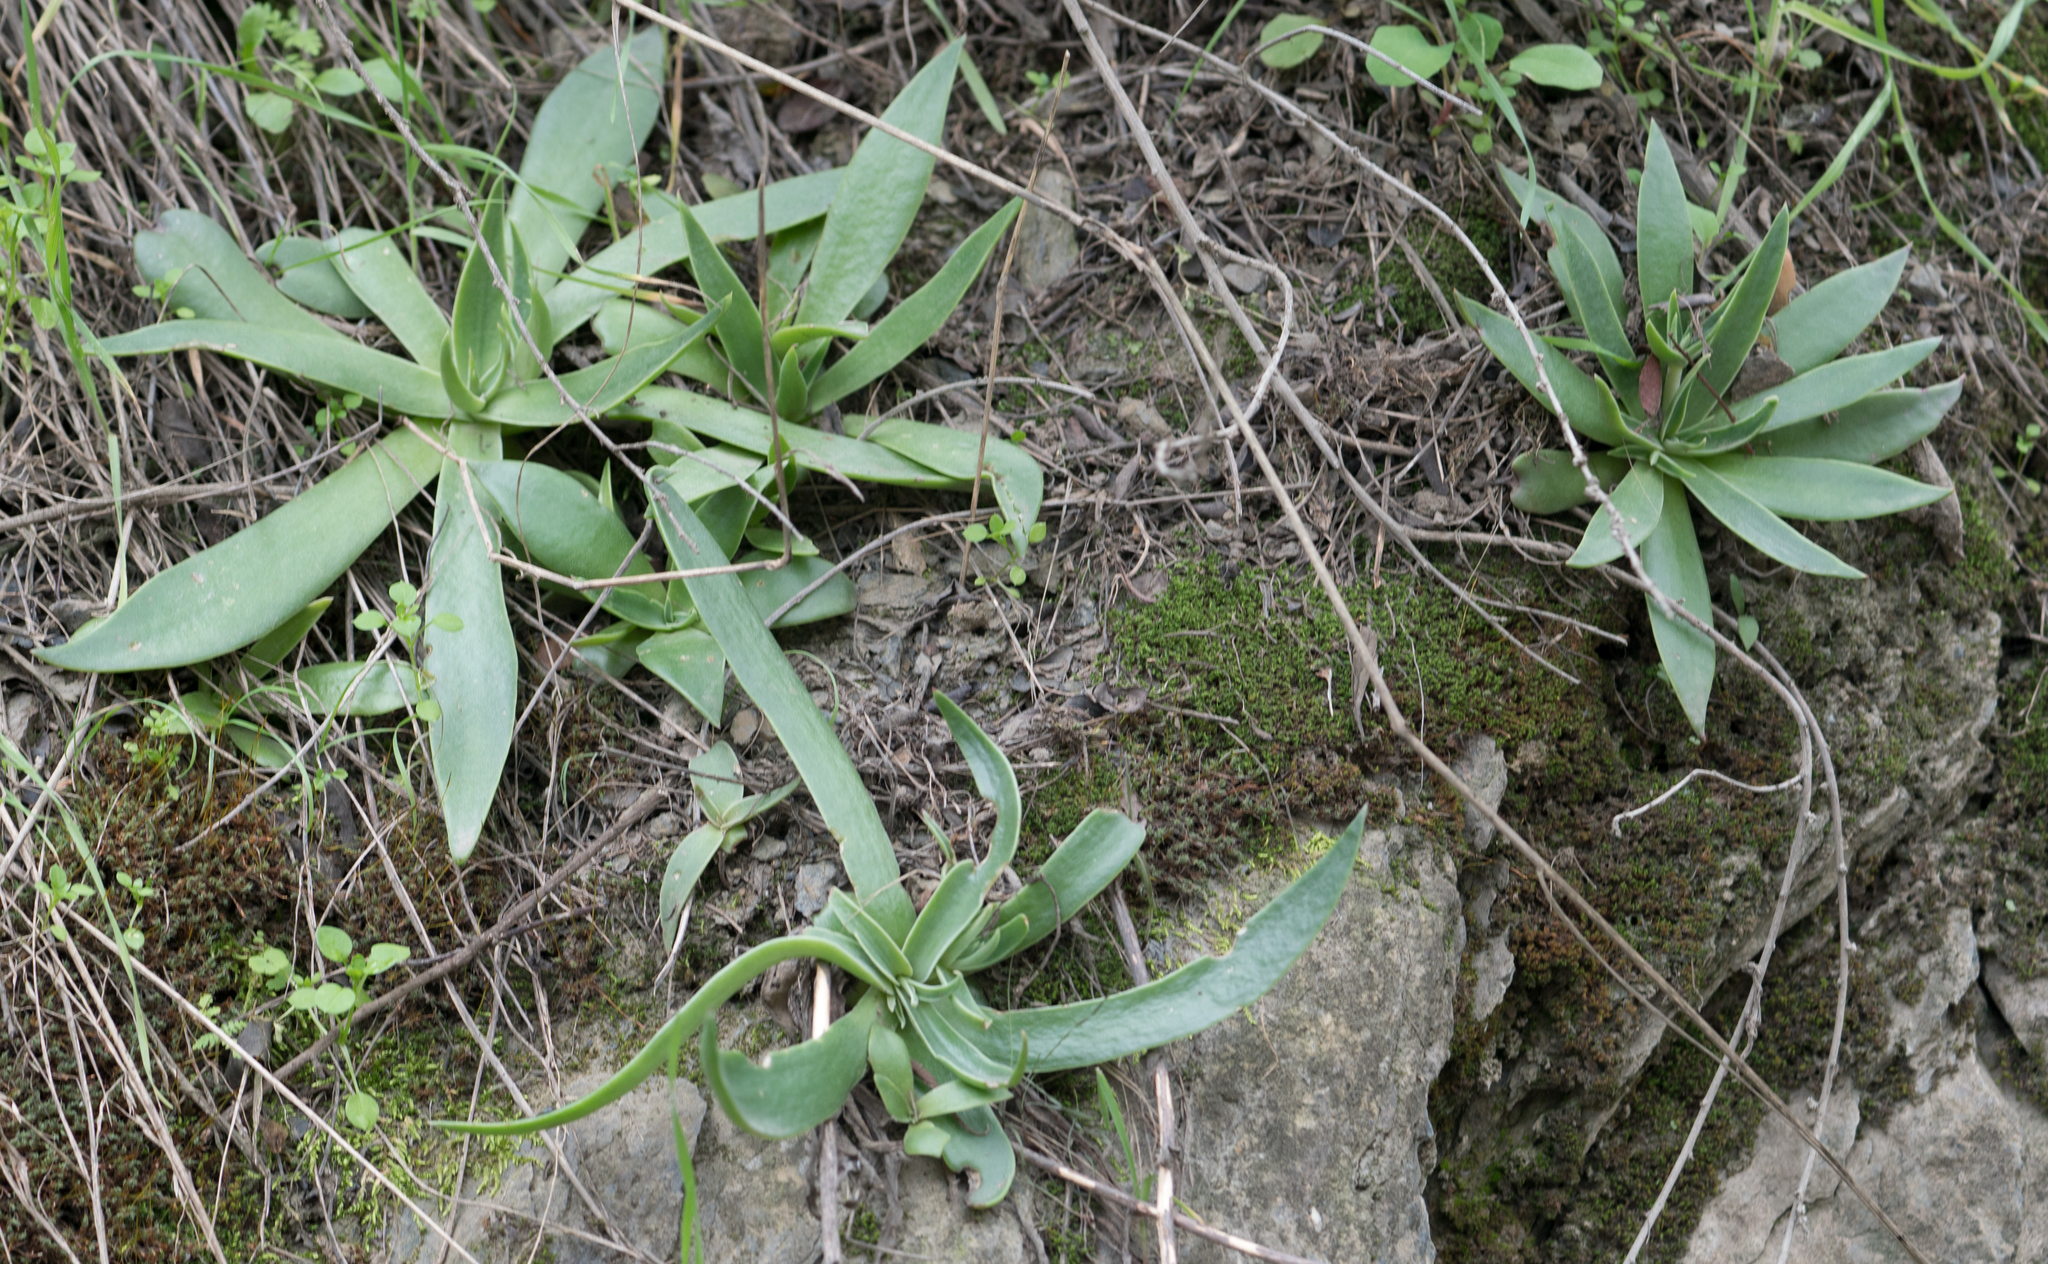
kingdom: Plantae
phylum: Tracheophyta
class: Magnoliopsida
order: Saxifragales
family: Crassulaceae
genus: Dudleya
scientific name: Dudleya lanceolata
